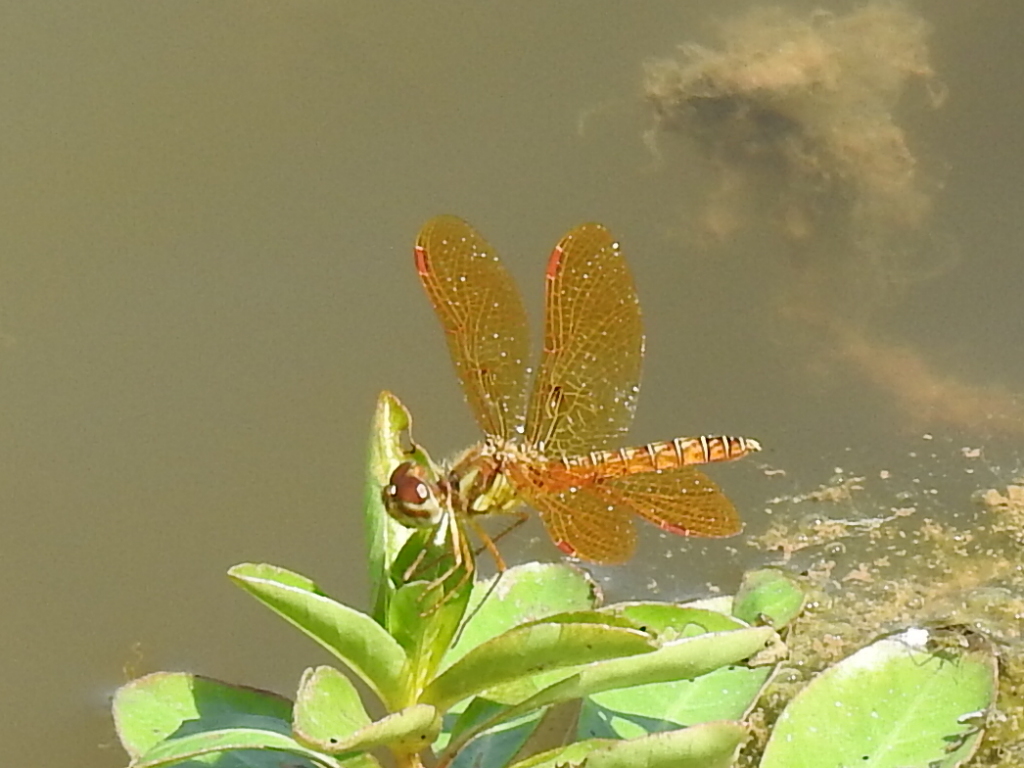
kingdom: Animalia
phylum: Arthropoda
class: Insecta
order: Odonata
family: Libellulidae
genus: Perithemis
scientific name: Perithemis tenera
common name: Eastern amberwing
